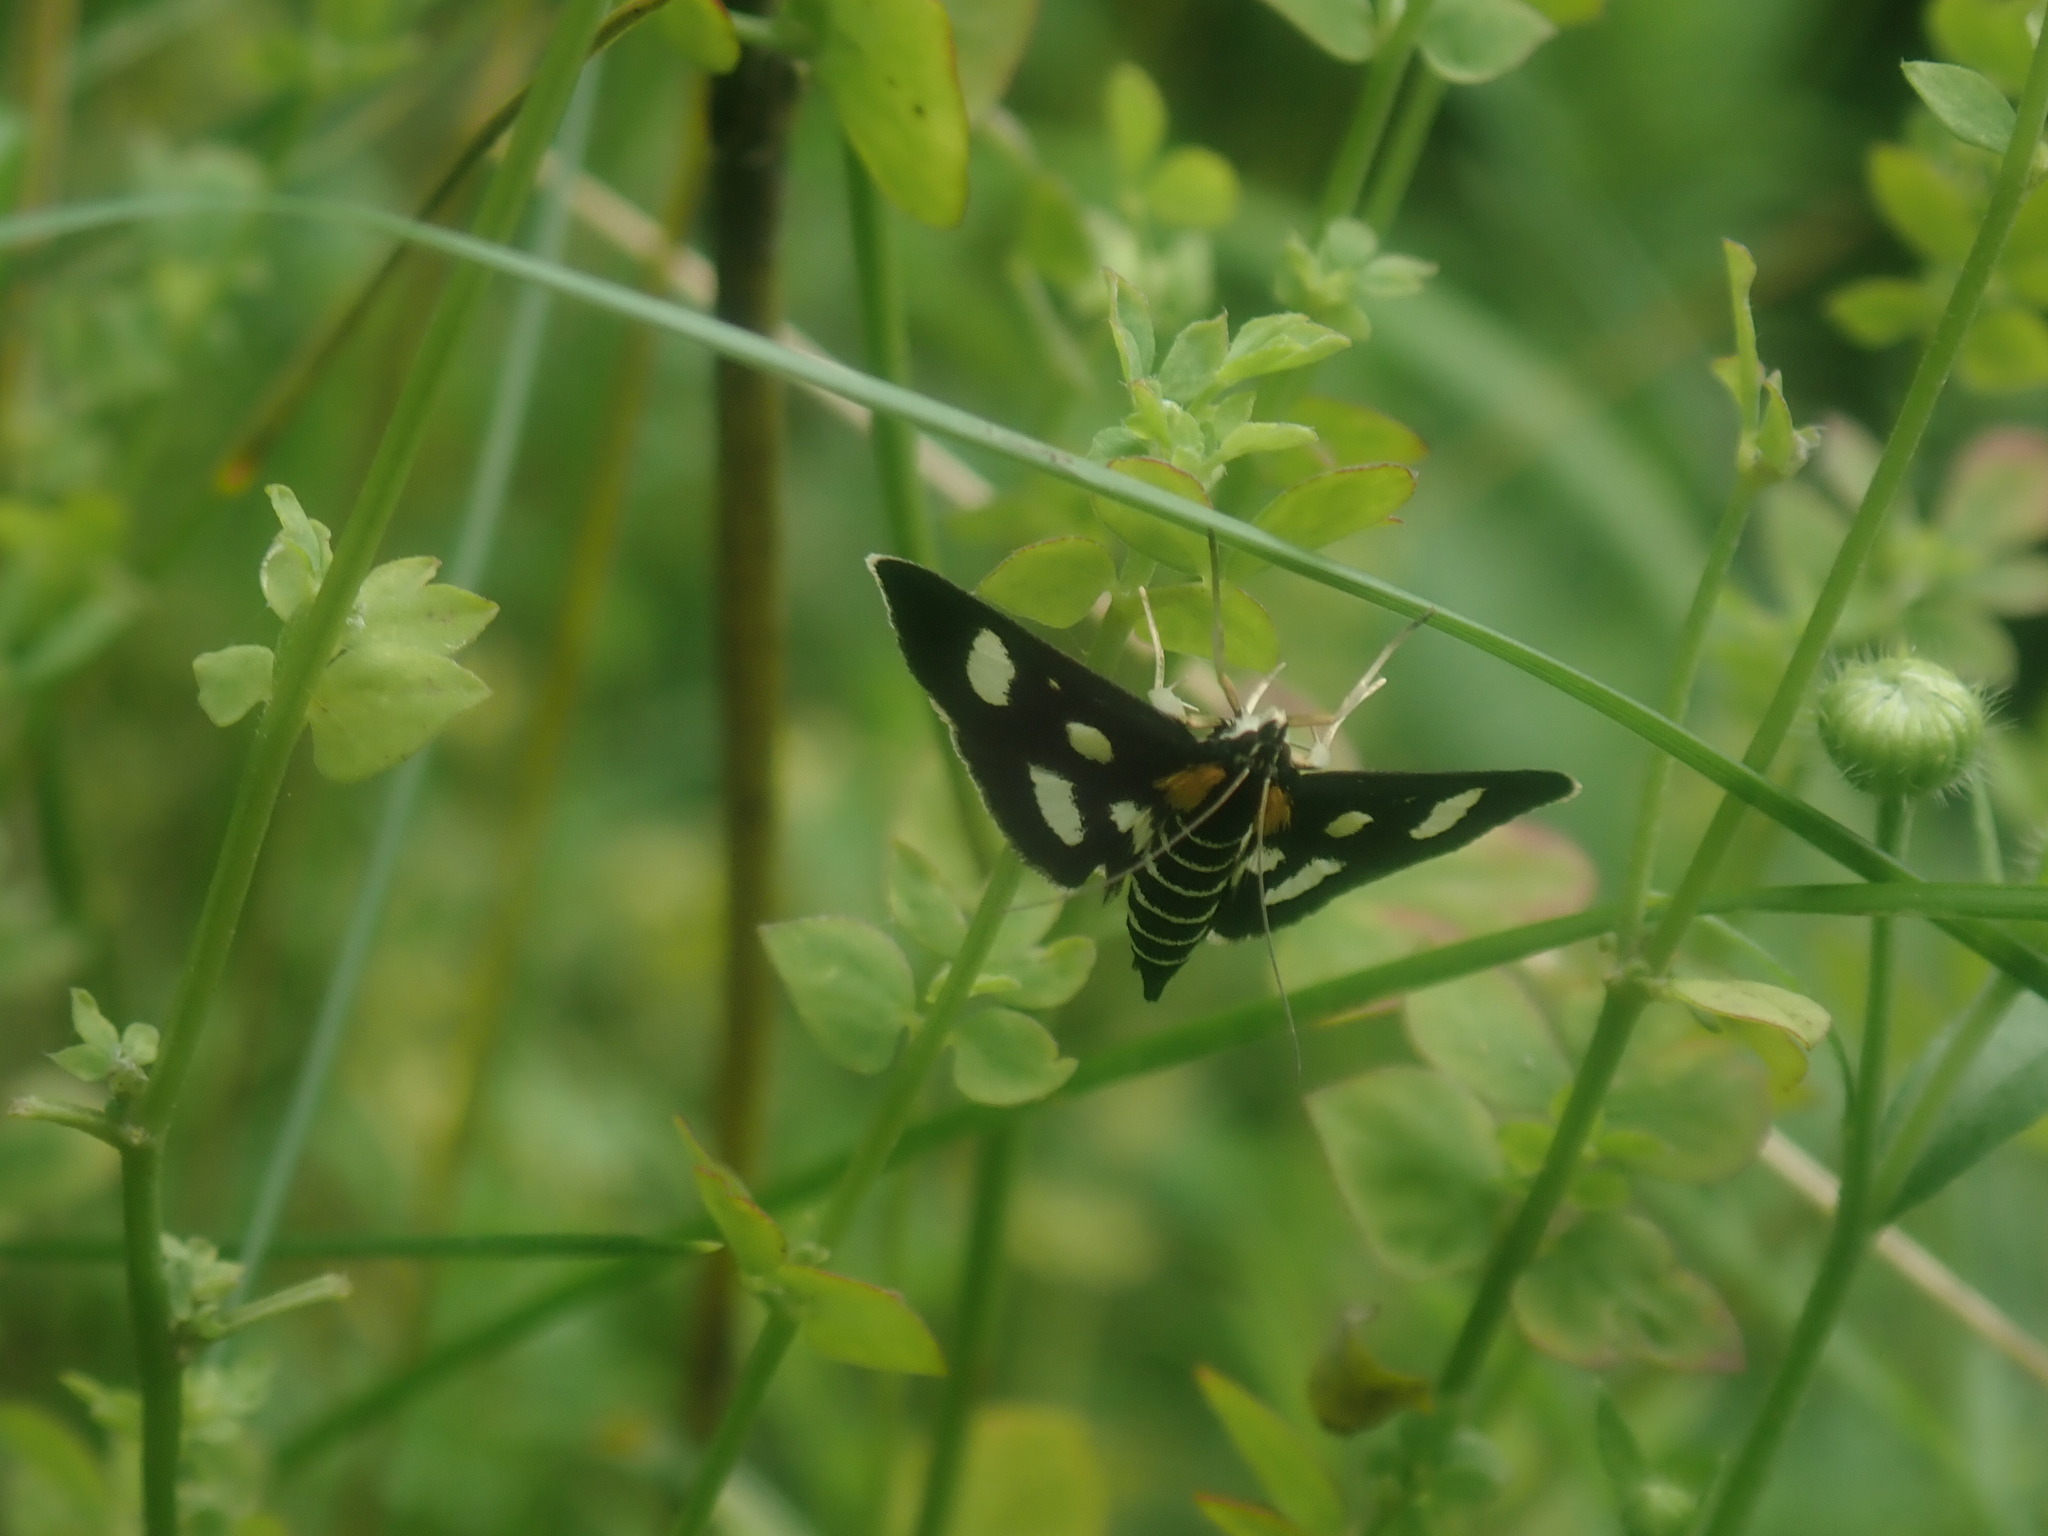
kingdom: Animalia
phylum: Arthropoda
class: Insecta
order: Lepidoptera
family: Crambidae
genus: Anania
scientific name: Anania funebris
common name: White-spotted sable moth
